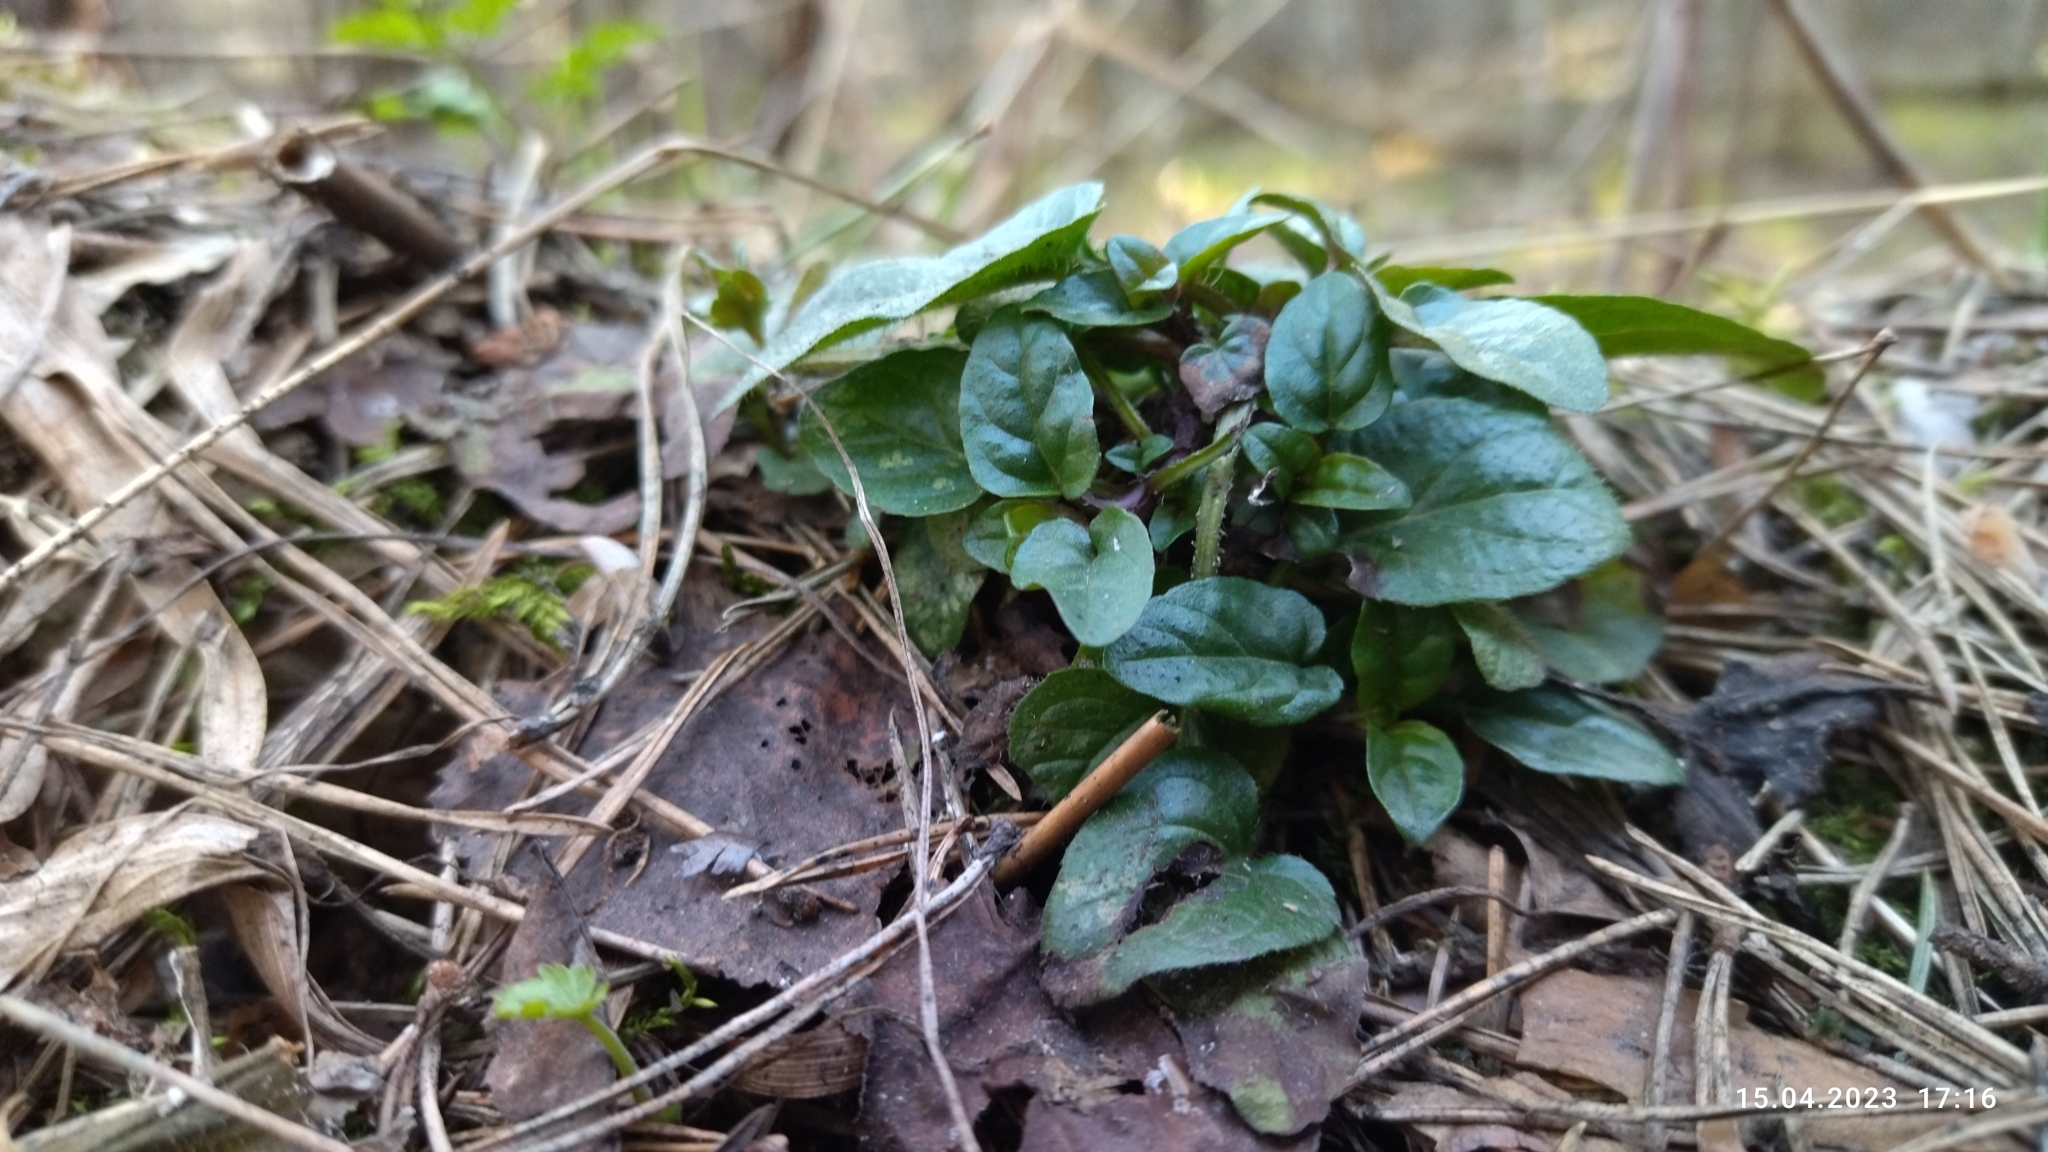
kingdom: Plantae
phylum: Tracheophyta
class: Magnoliopsida
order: Lamiales
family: Lamiaceae
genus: Prunella
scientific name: Prunella vulgaris
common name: Heal-all
